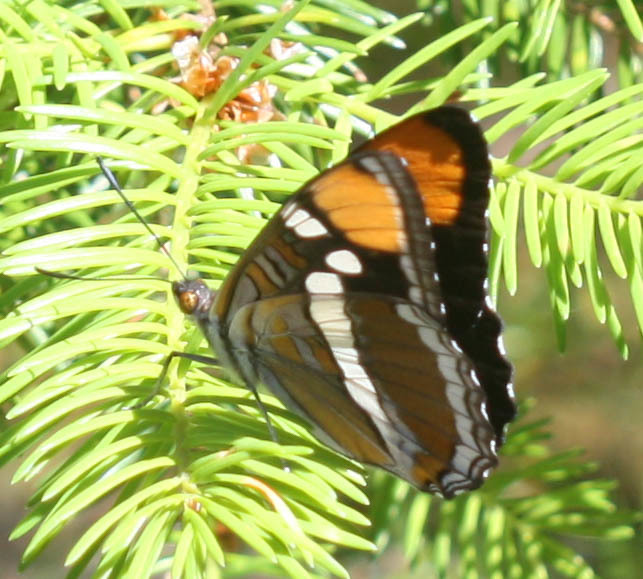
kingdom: Animalia
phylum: Arthropoda
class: Insecta
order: Lepidoptera
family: Nymphalidae
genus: Limenitis
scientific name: Limenitis bredowii
